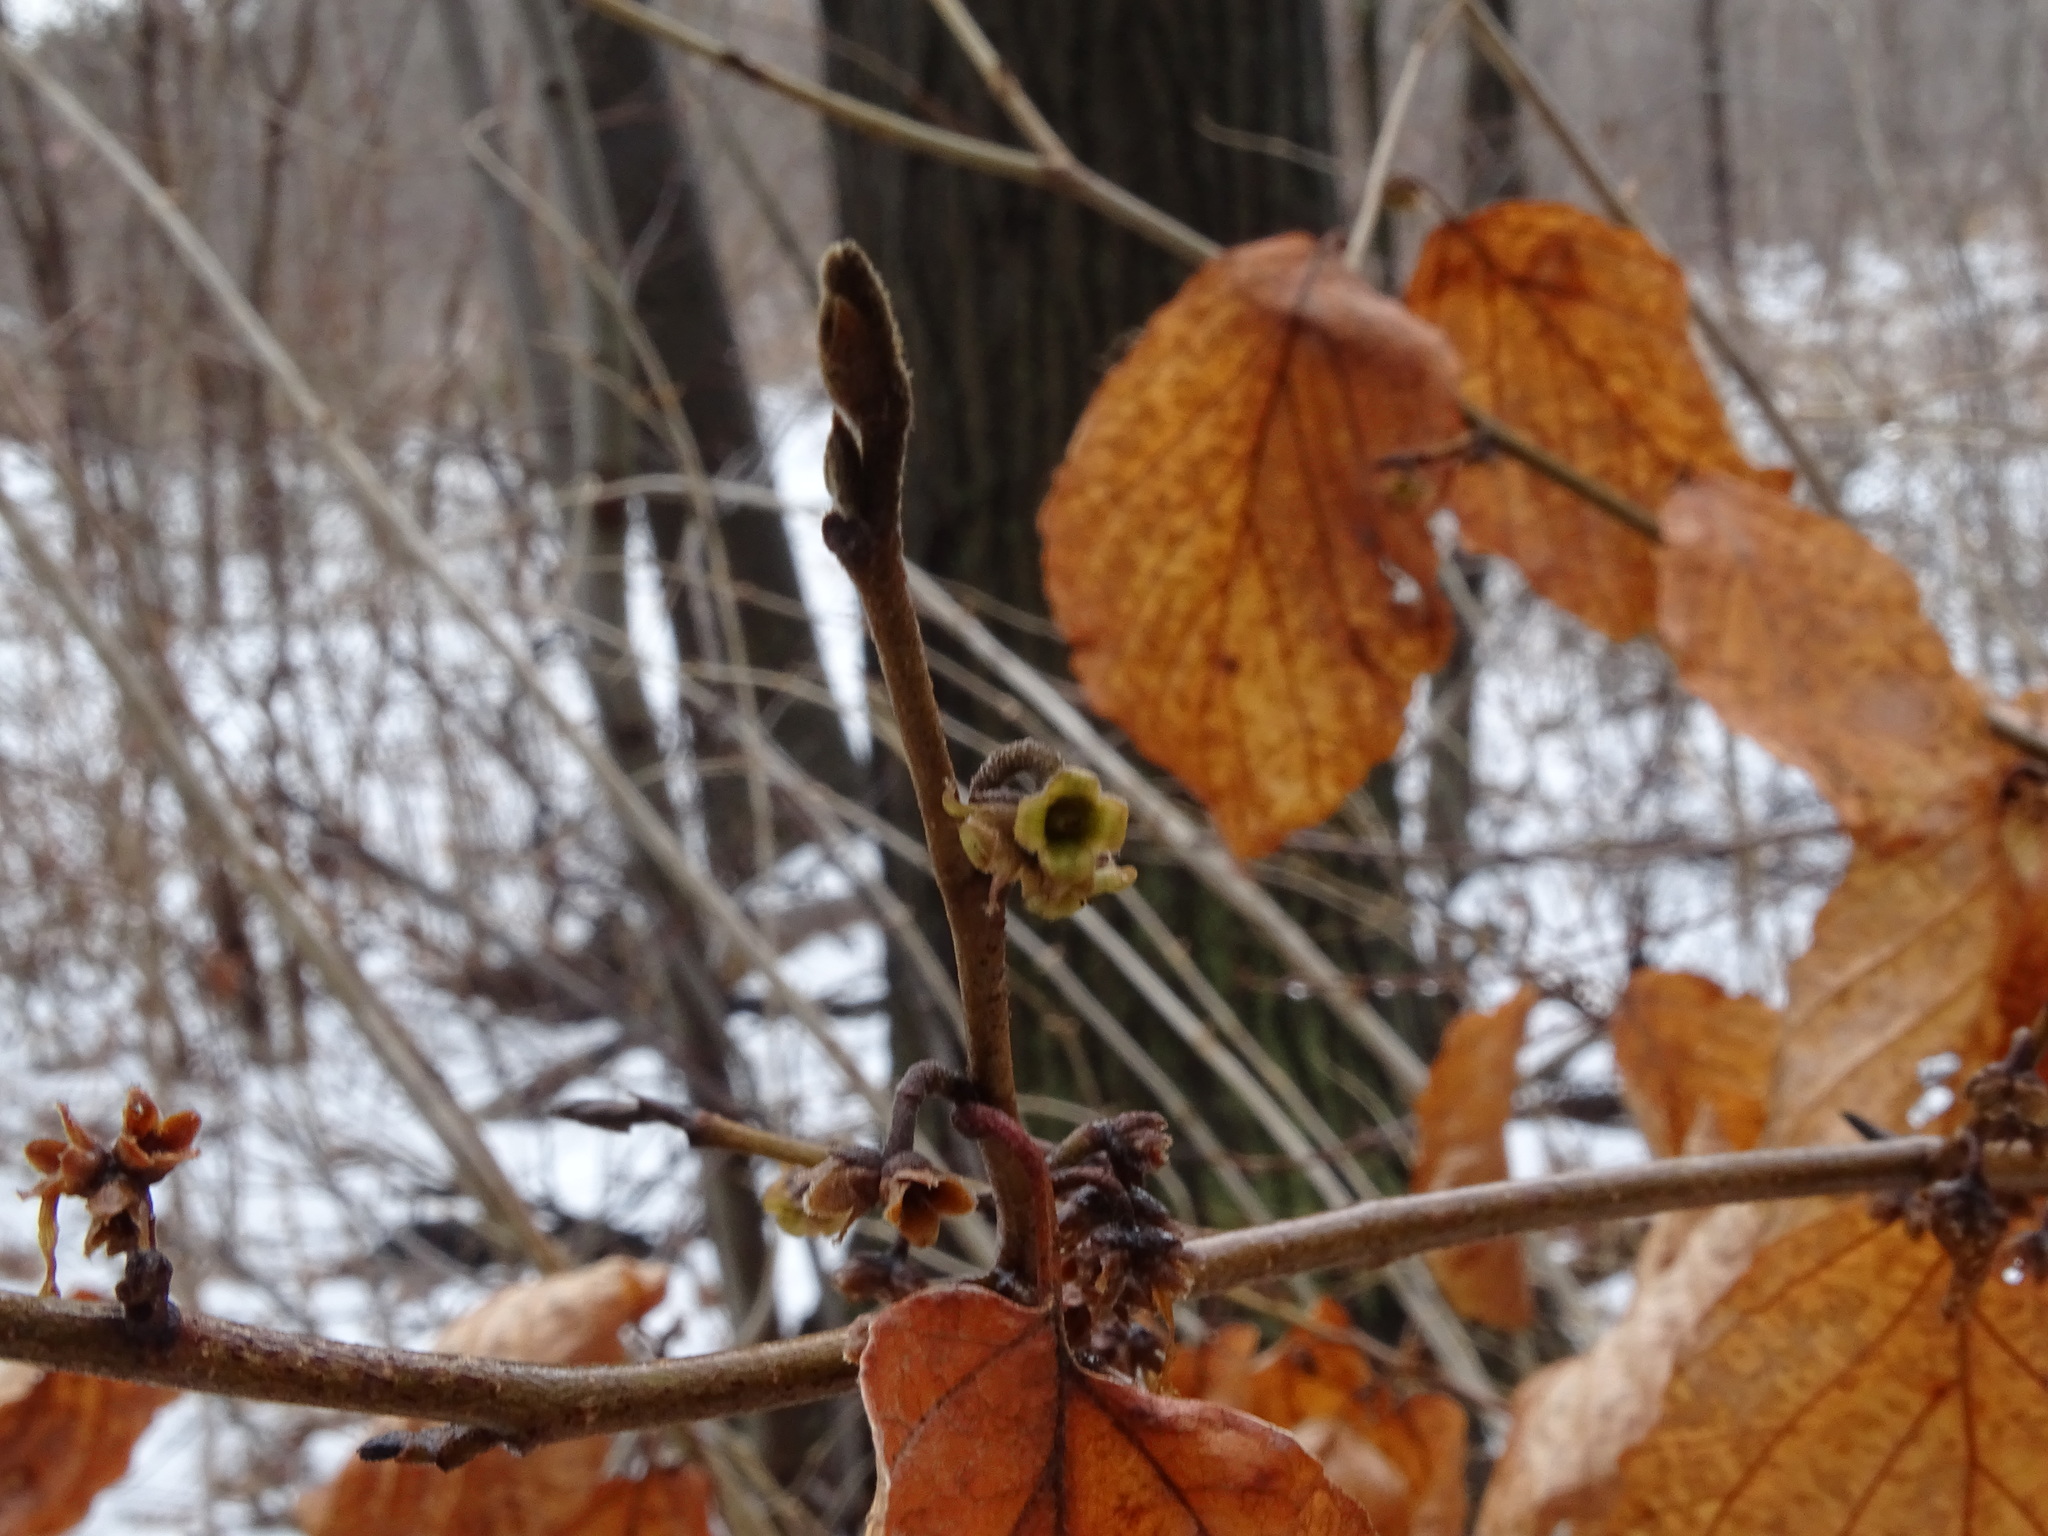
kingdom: Plantae
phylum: Tracheophyta
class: Magnoliopsida
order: Saxifragales
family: Hamamelidaceae
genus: Hamamelis
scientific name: Hamamelis virginiana
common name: Witch-hazel
